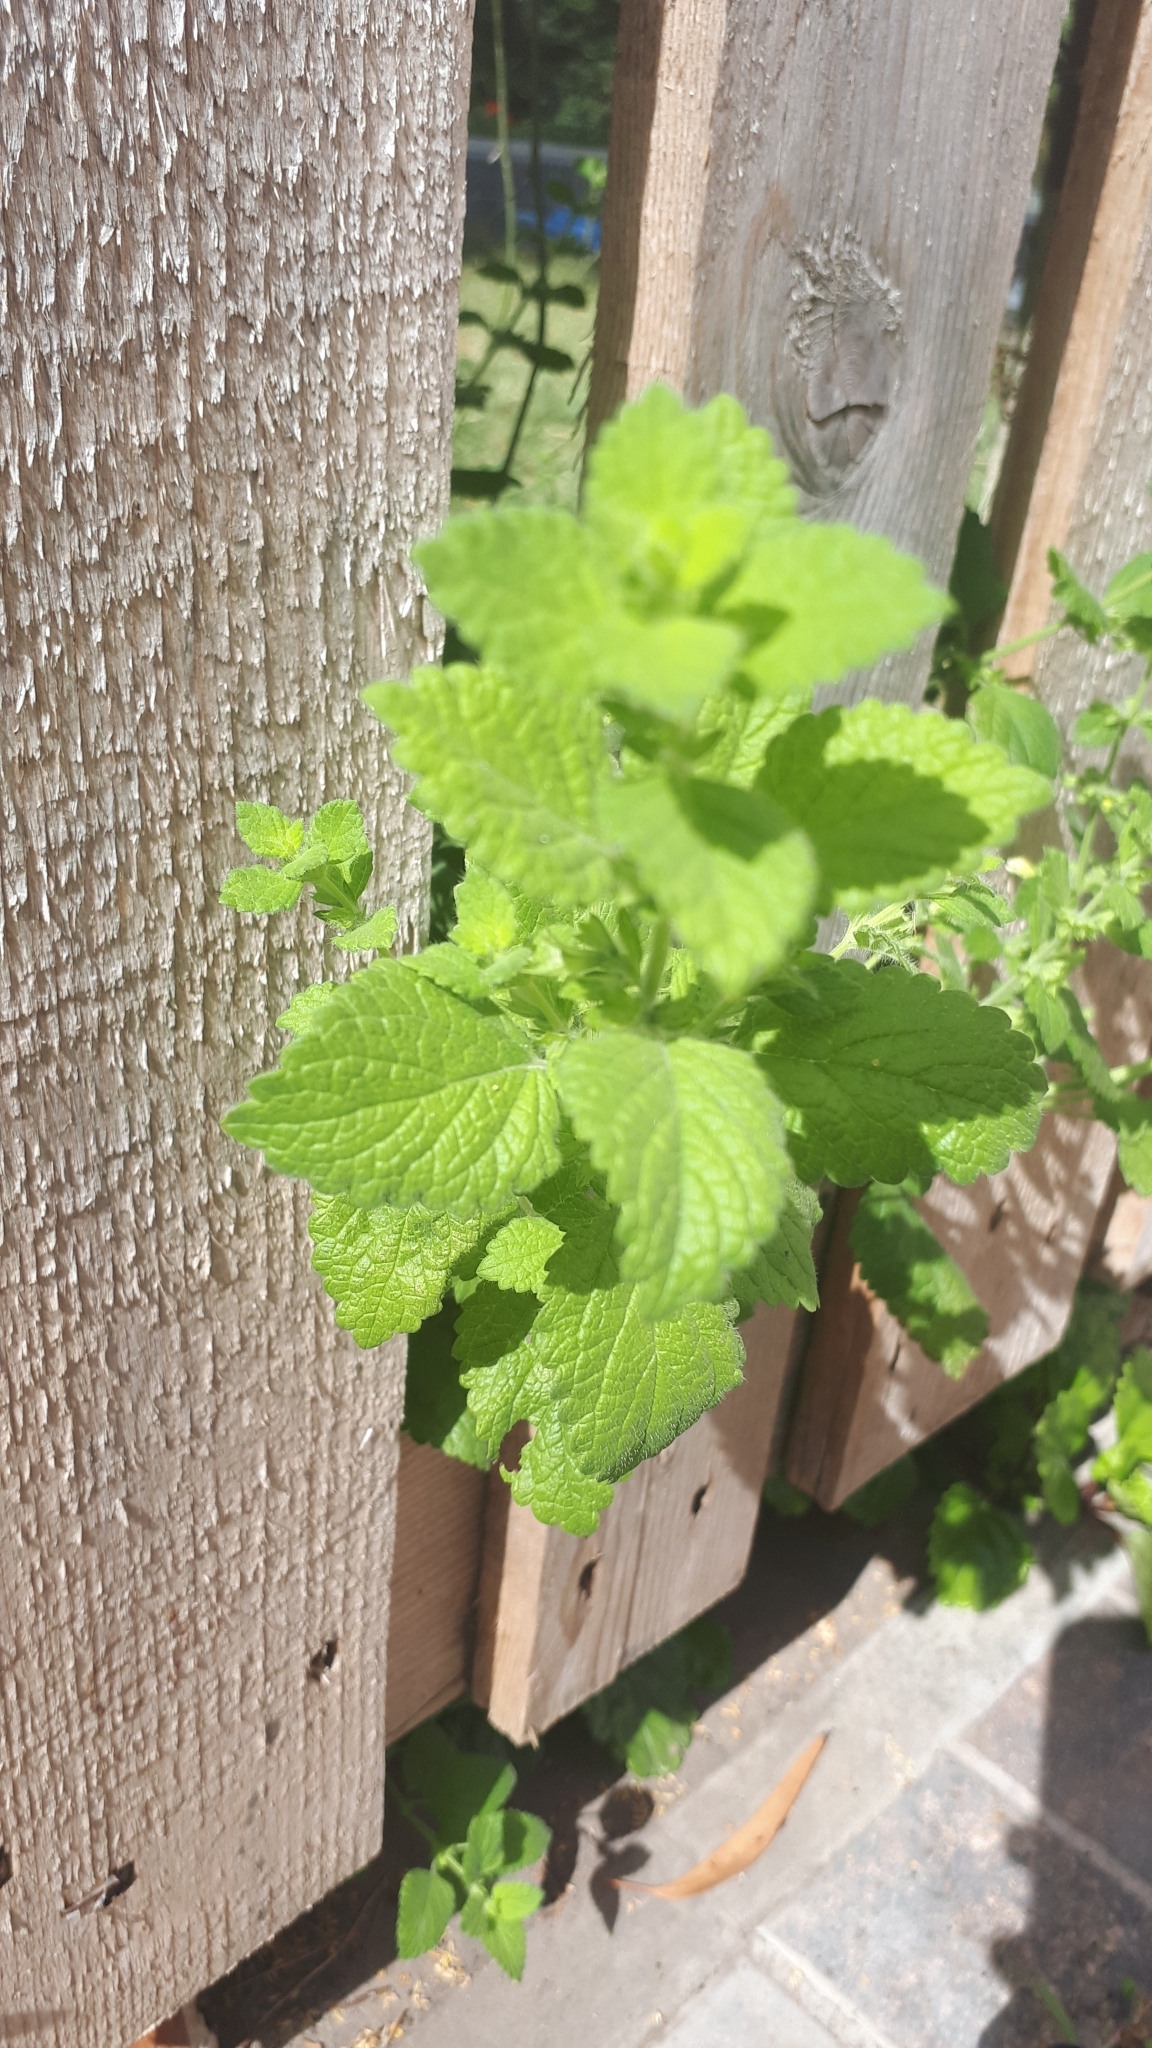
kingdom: Plantae
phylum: Tracheophyta
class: Magnoliopsida
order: Lamiales
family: Lamiaceae
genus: Melissa
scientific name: Melissa officinalis
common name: Balm
